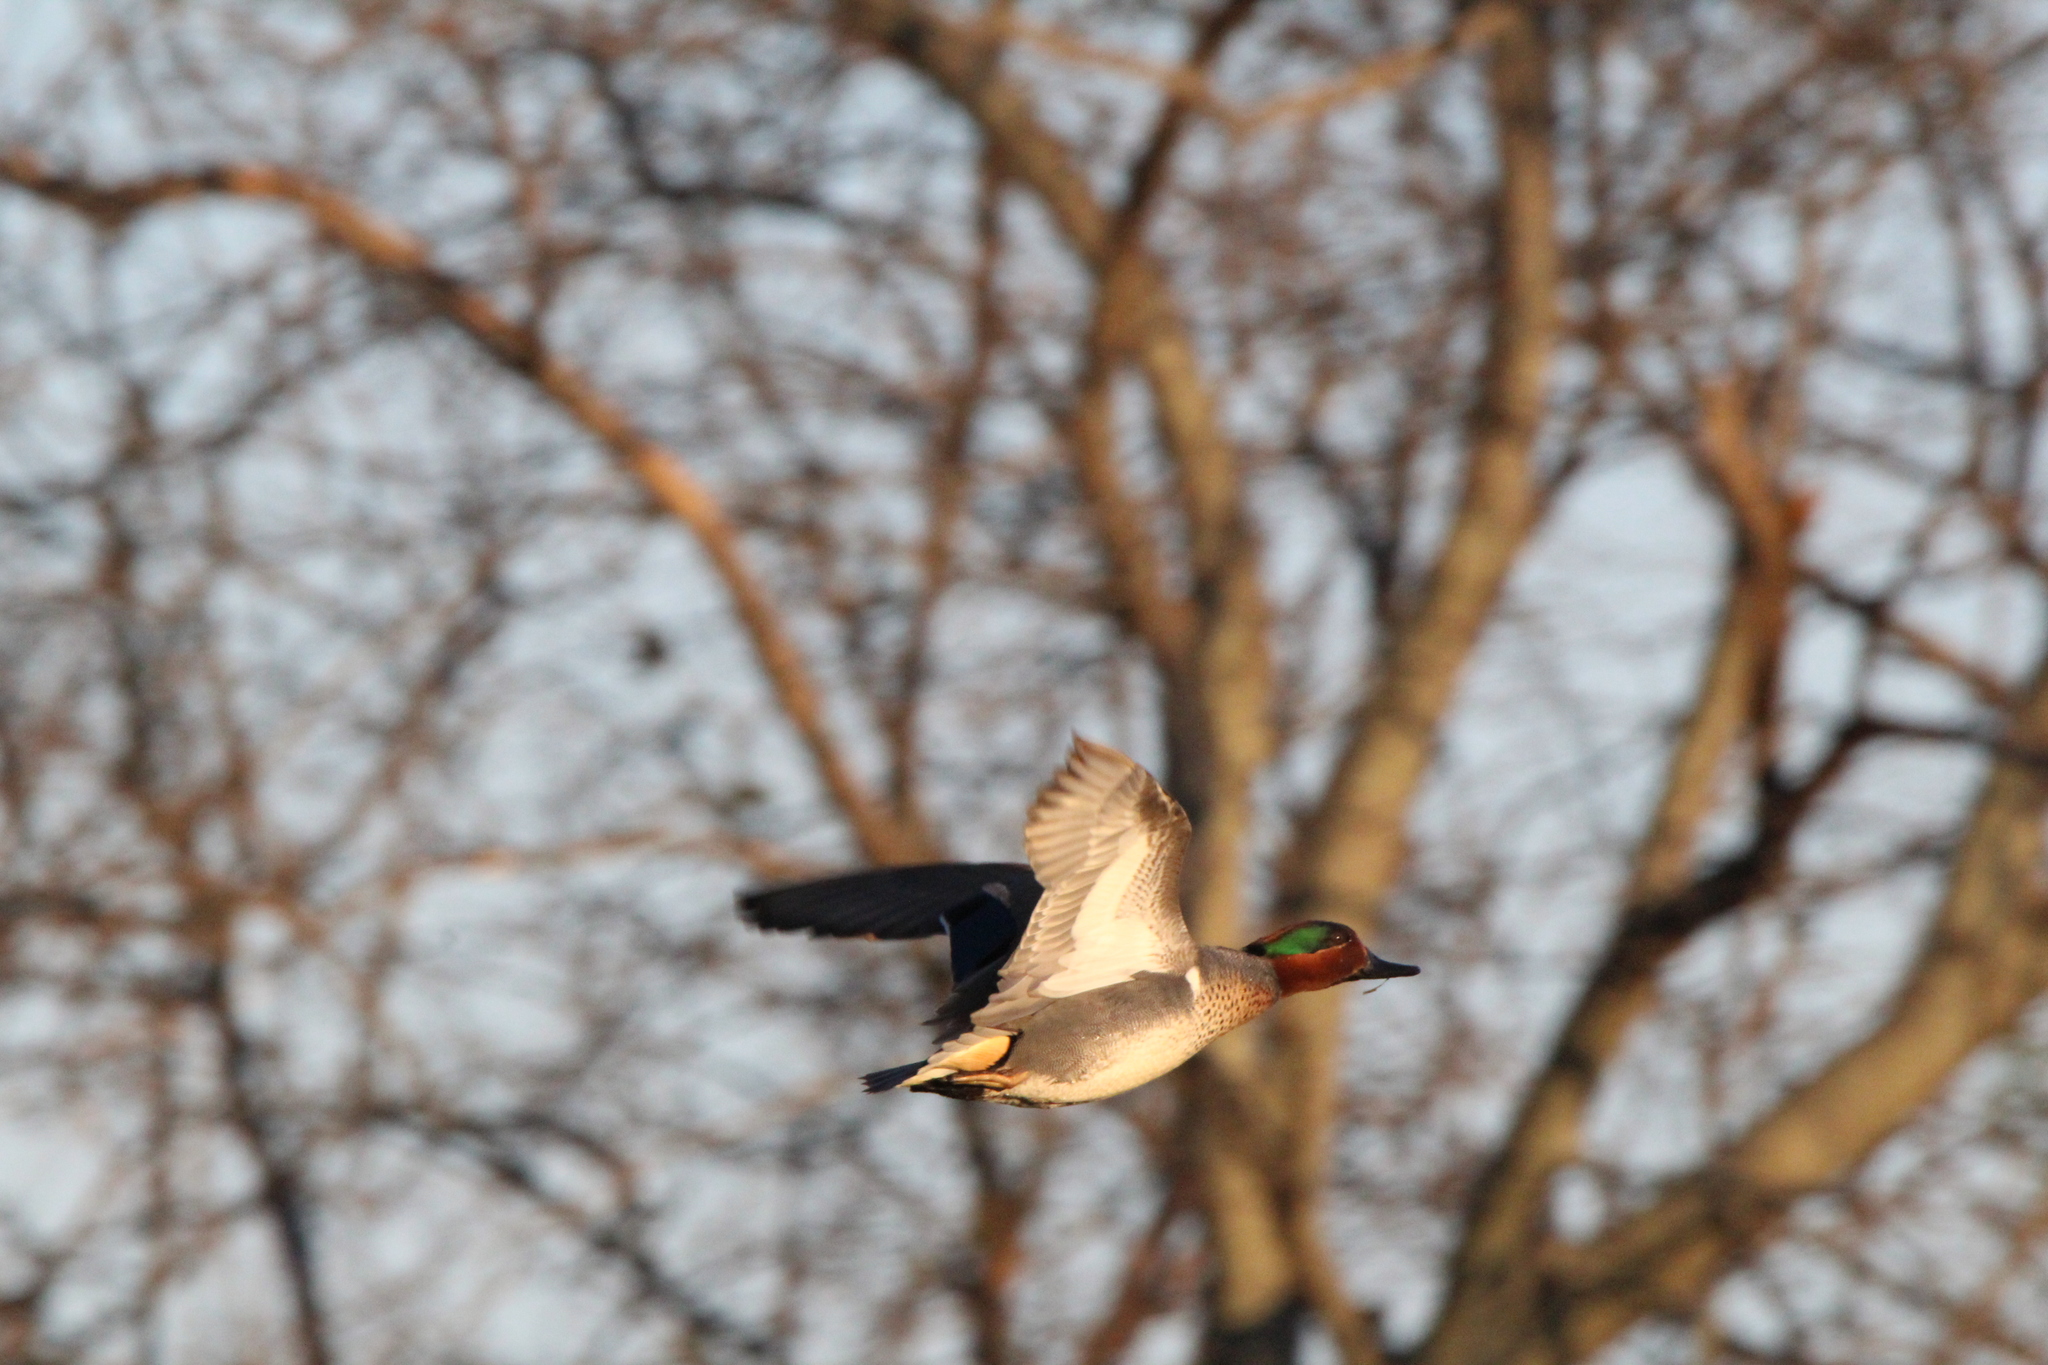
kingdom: Animalia
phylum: Chordata
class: Aves
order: Anseriformes
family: Anatidae
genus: Anas
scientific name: Anas crecca
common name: Eurasian teal
